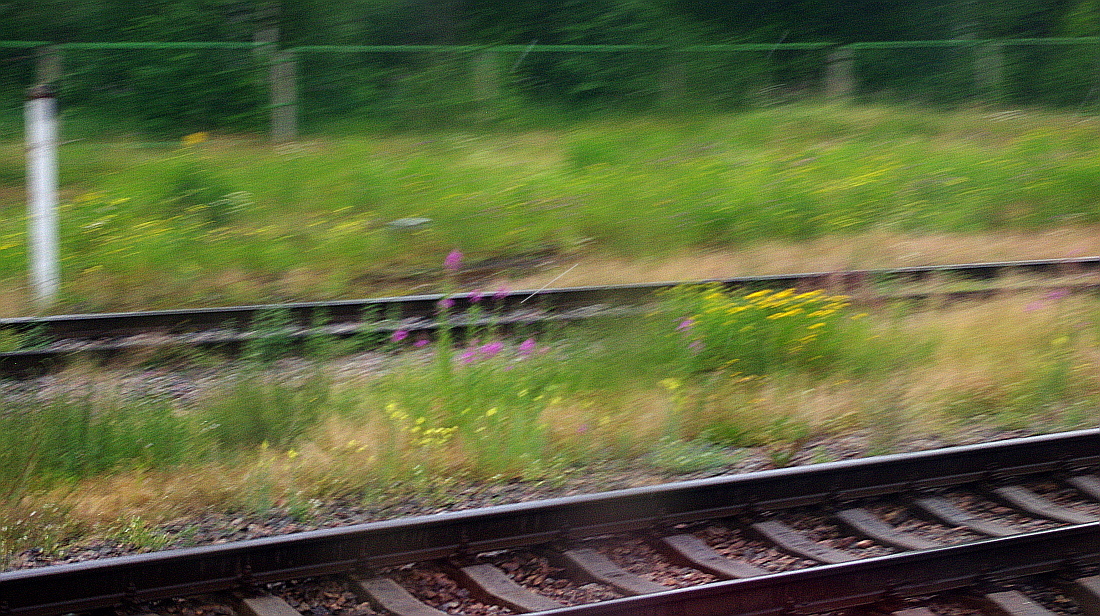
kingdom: Plantae
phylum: Tracheophyta
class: Magnoliopsida
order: Myrtales
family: Onagraceae
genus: Chamaenerion
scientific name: Chamaenerion angustifolium
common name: Fireweed
